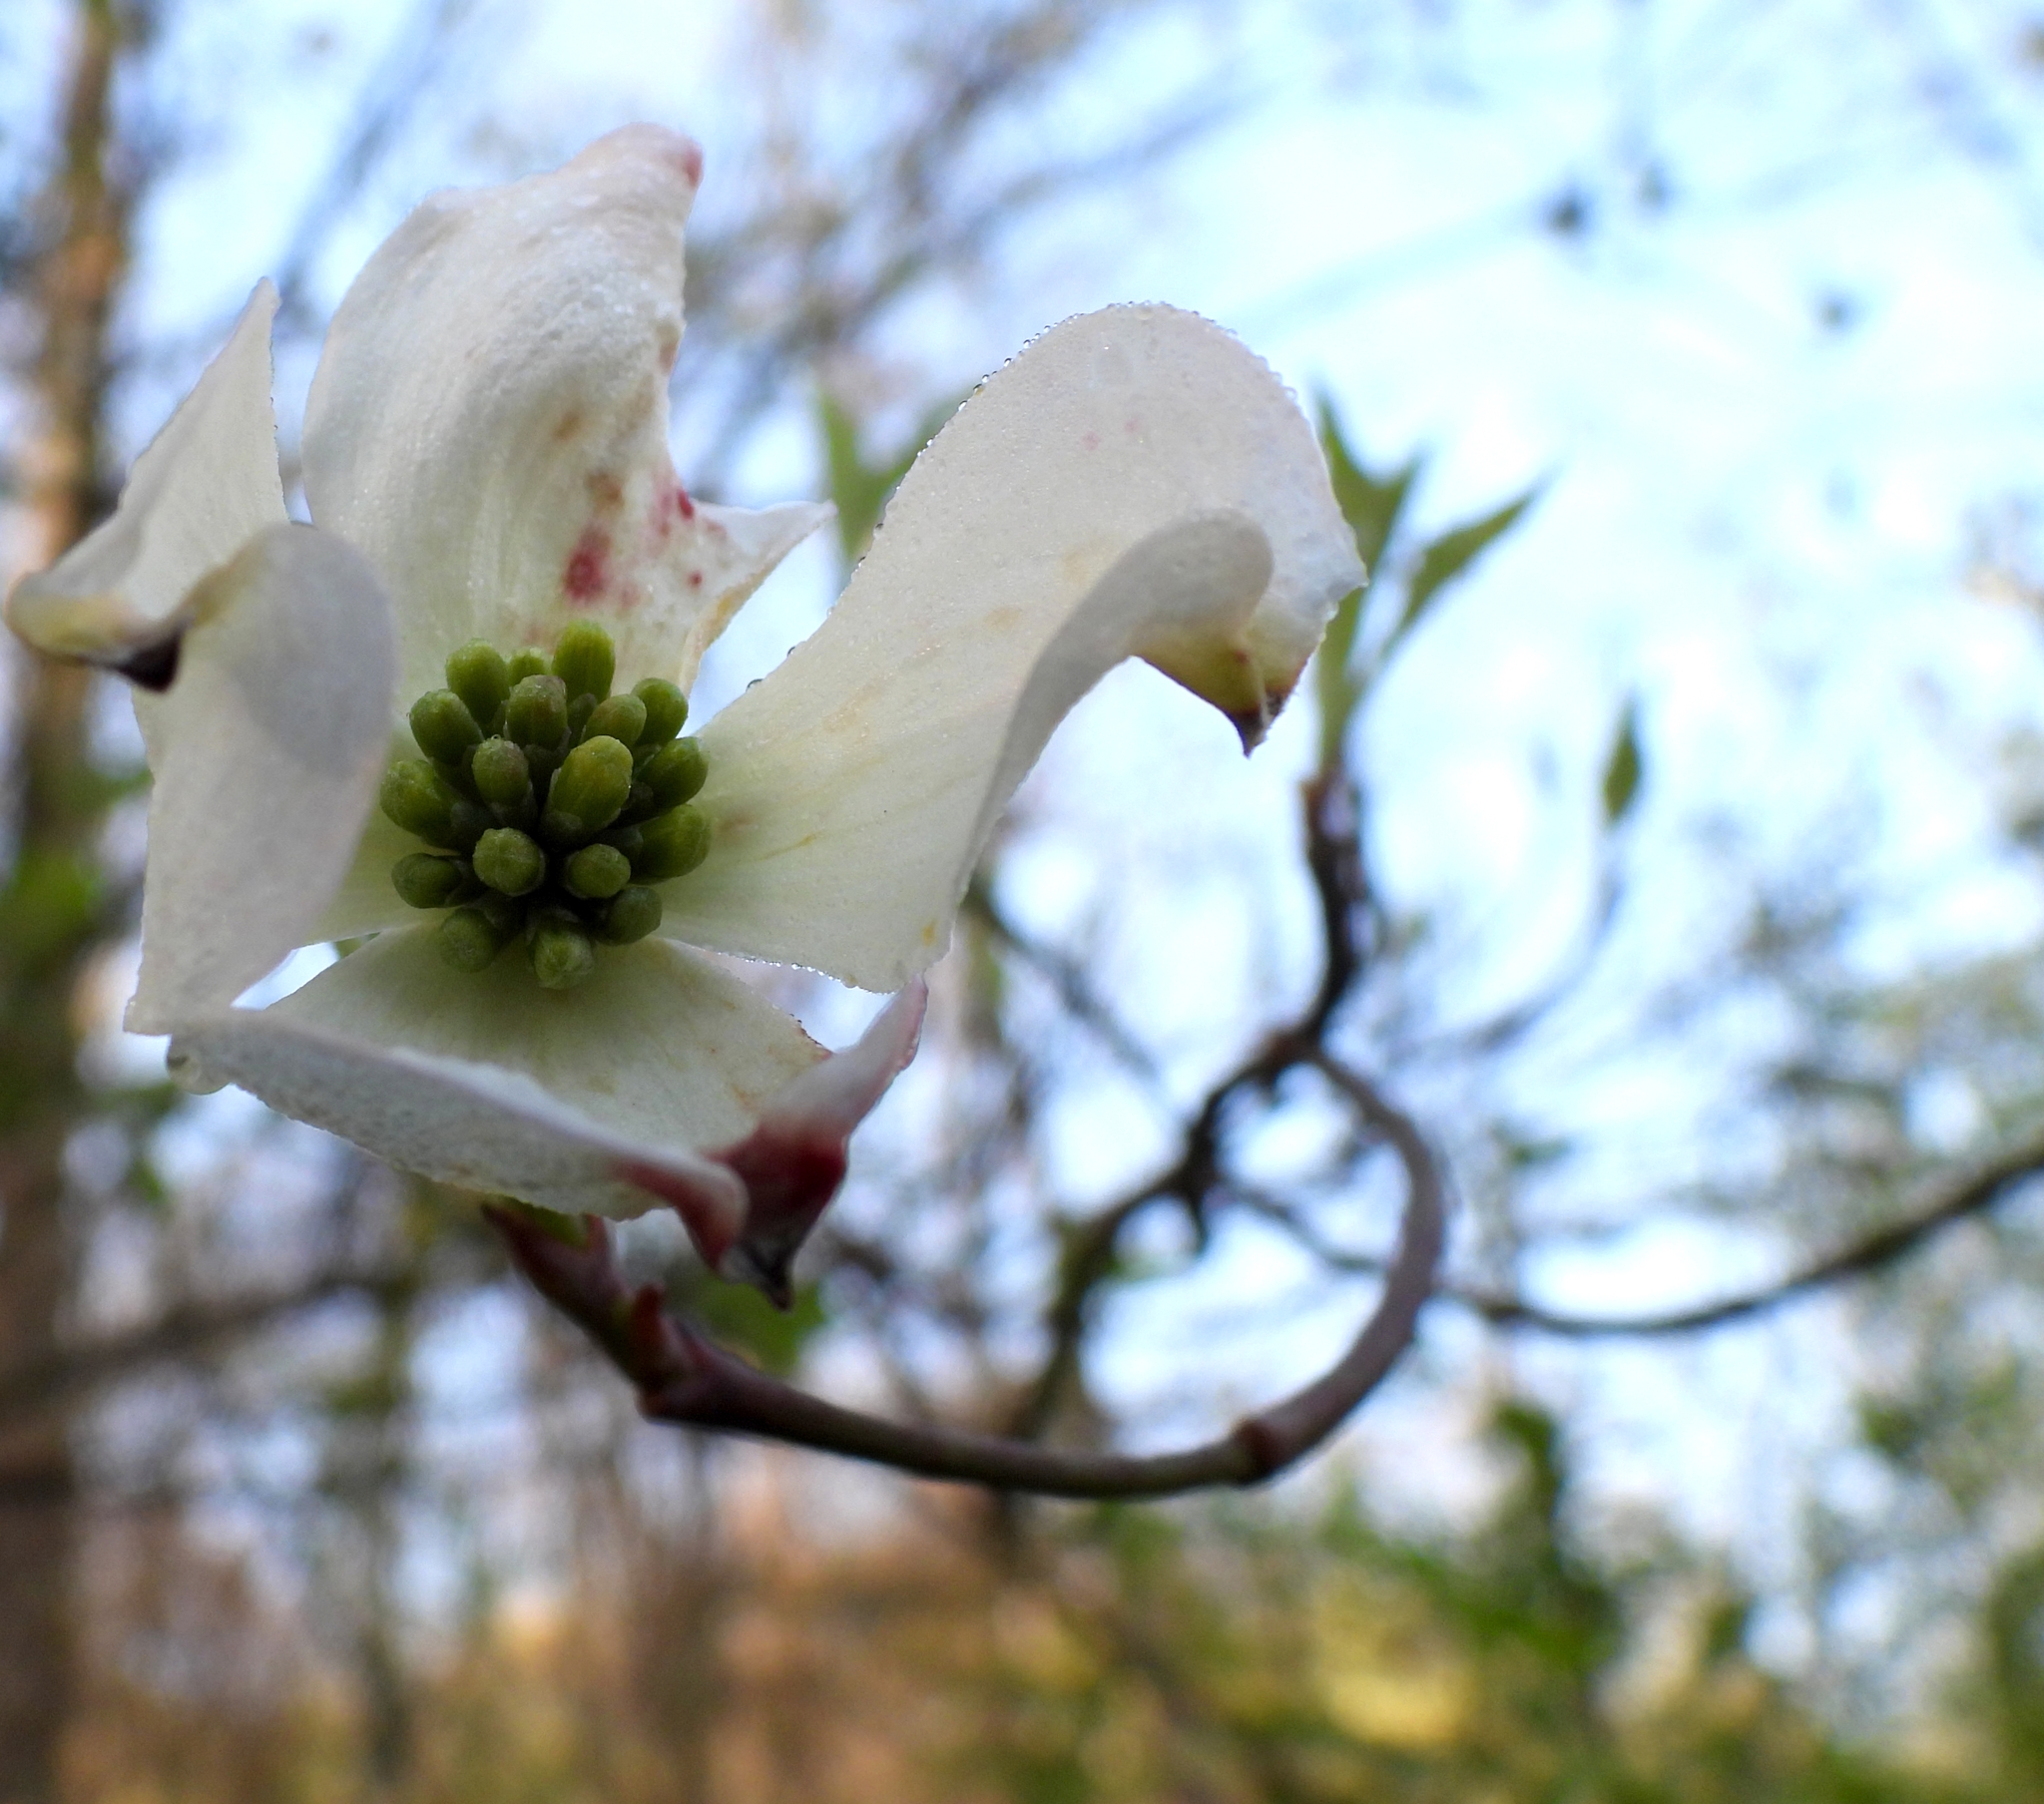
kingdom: Plantae
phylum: Tracheophyta
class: Magnoliopsida
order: Cornales
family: Cornaceae
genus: Cornus
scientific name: Cornus florida
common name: Flowering dogwood
